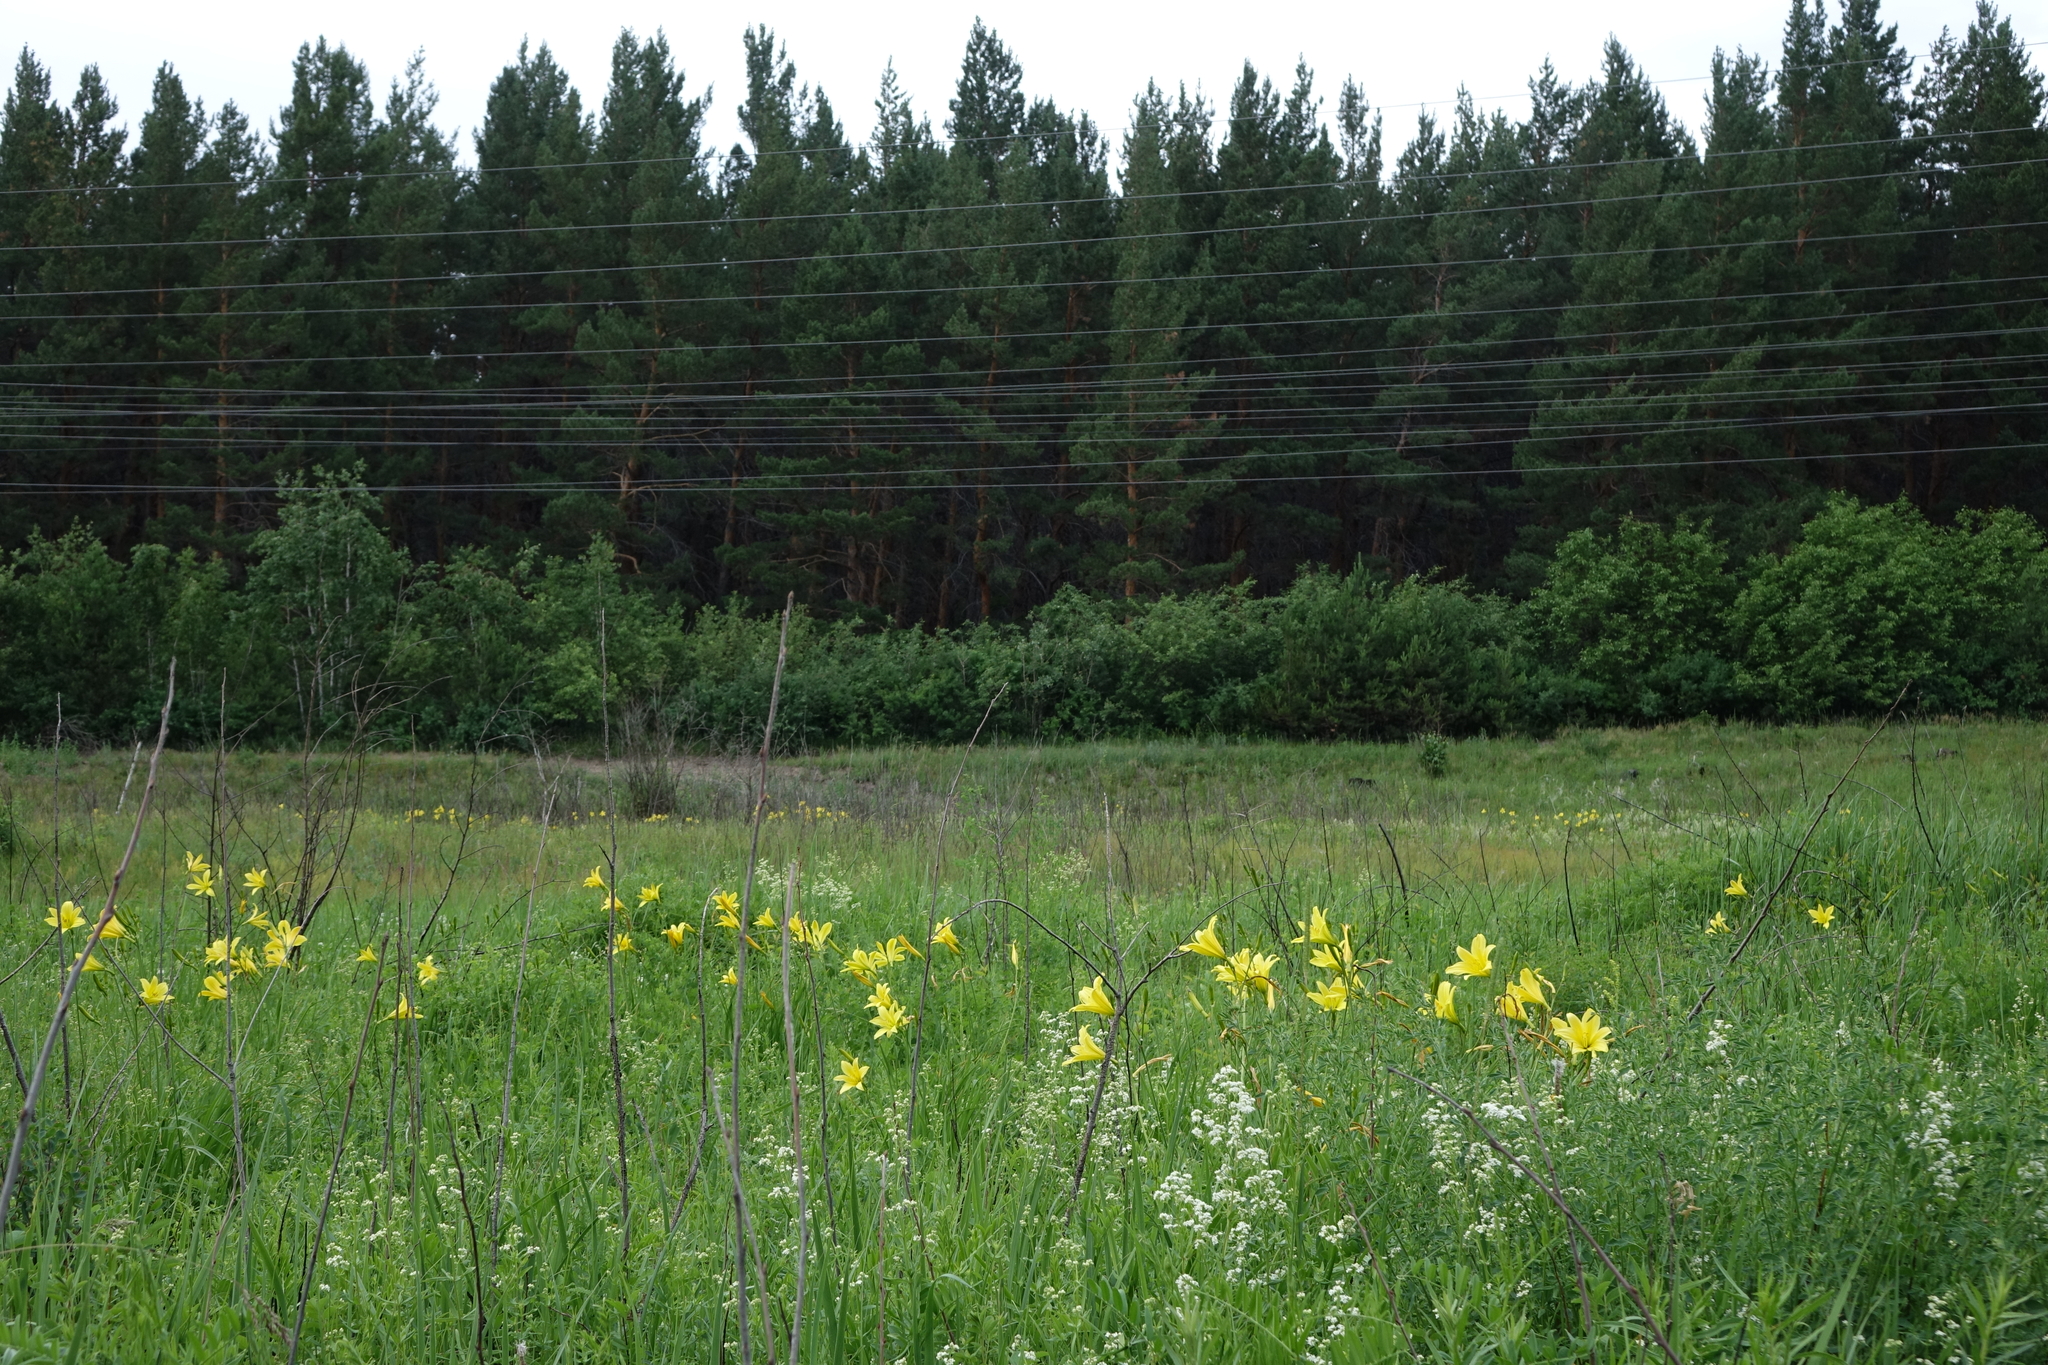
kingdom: Plantae
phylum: Tracheophyta
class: Pinopsida
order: Pinales
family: Pinaceae
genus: Pinus
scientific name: Pinus sylvestris
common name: Scots pine
